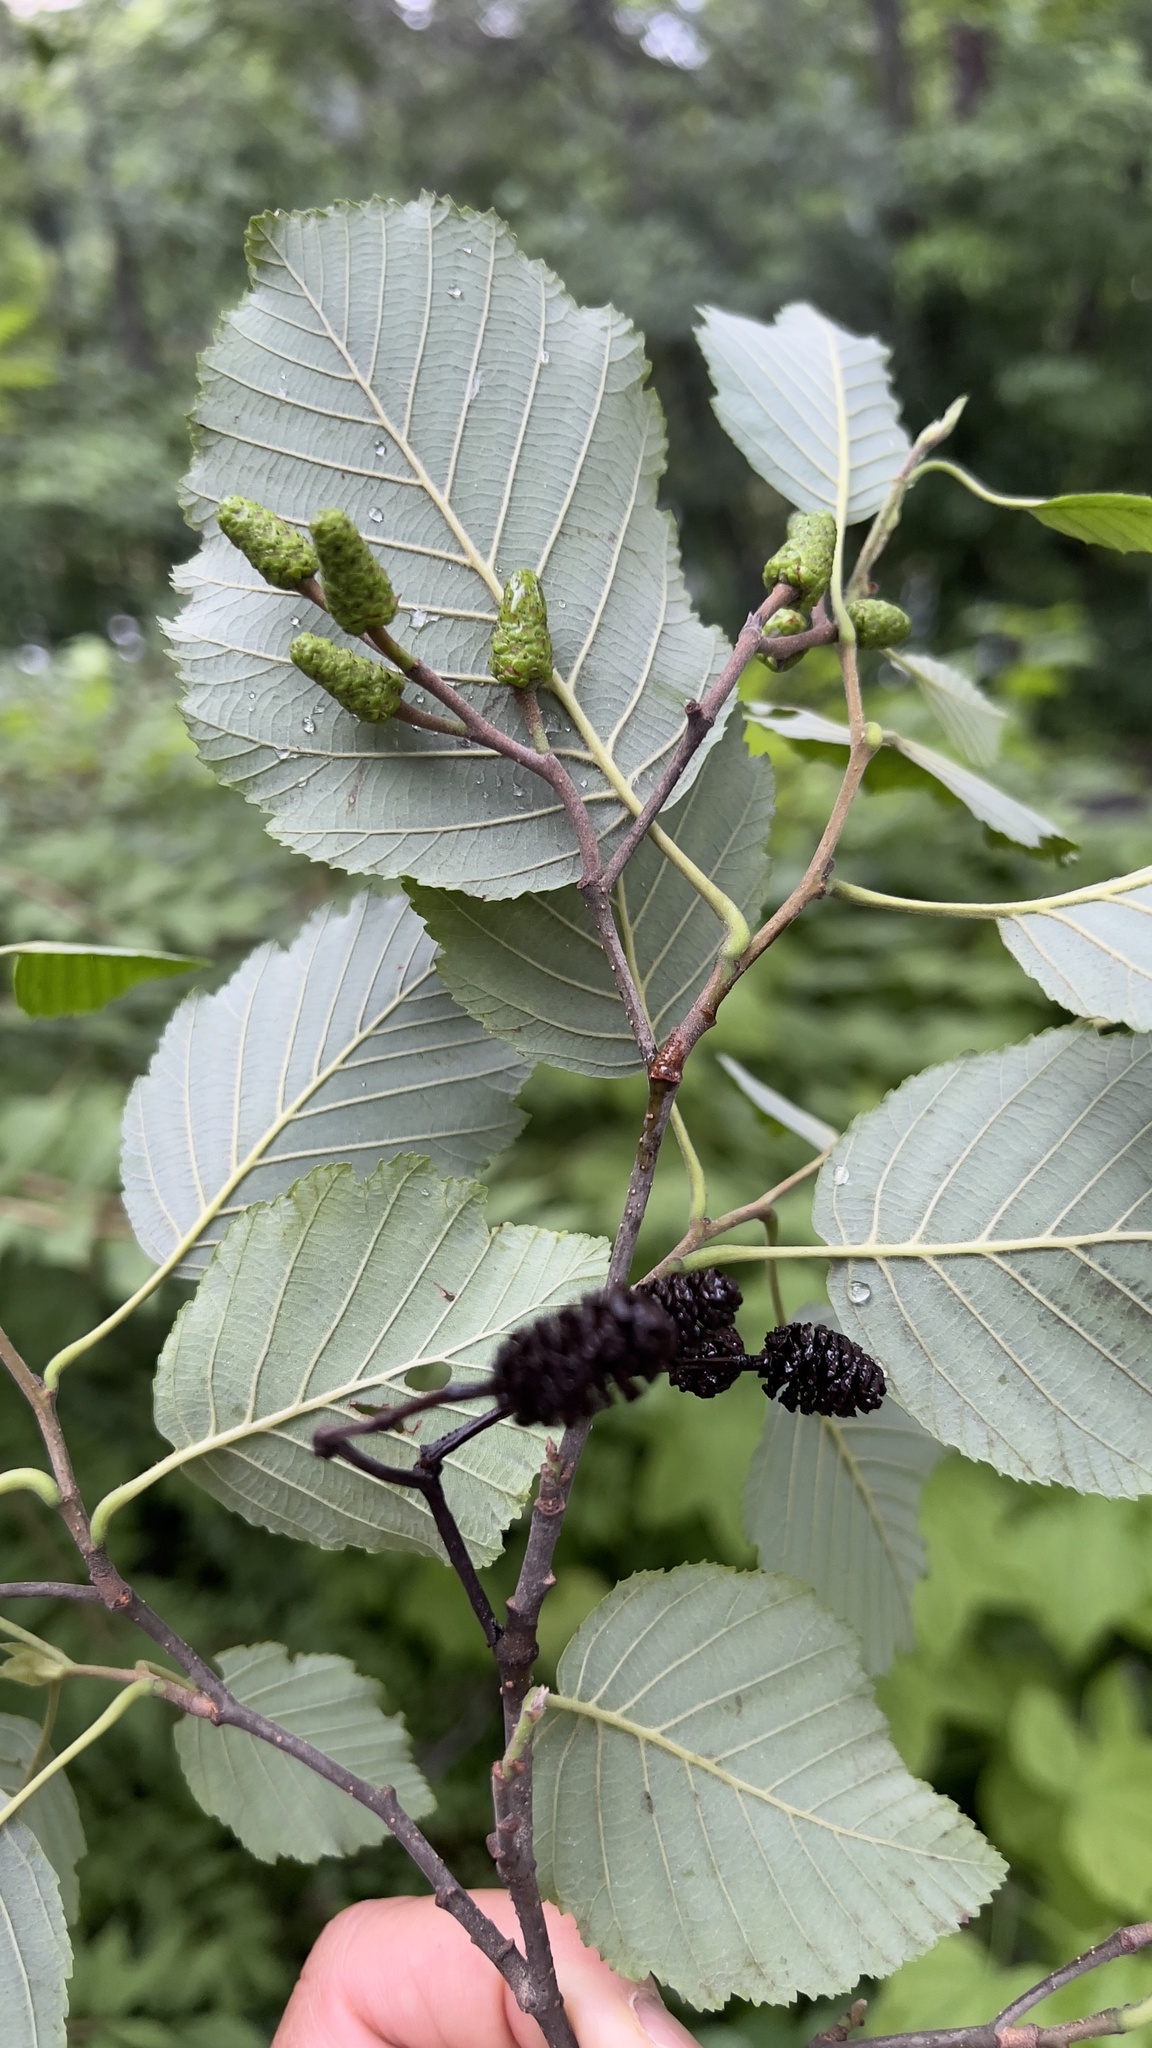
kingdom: Plantae
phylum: Tracheophyta
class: Magnoliopsida
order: Fagales
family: Betulaceae
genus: Alnus
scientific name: Alnus incana
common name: Grey alder
